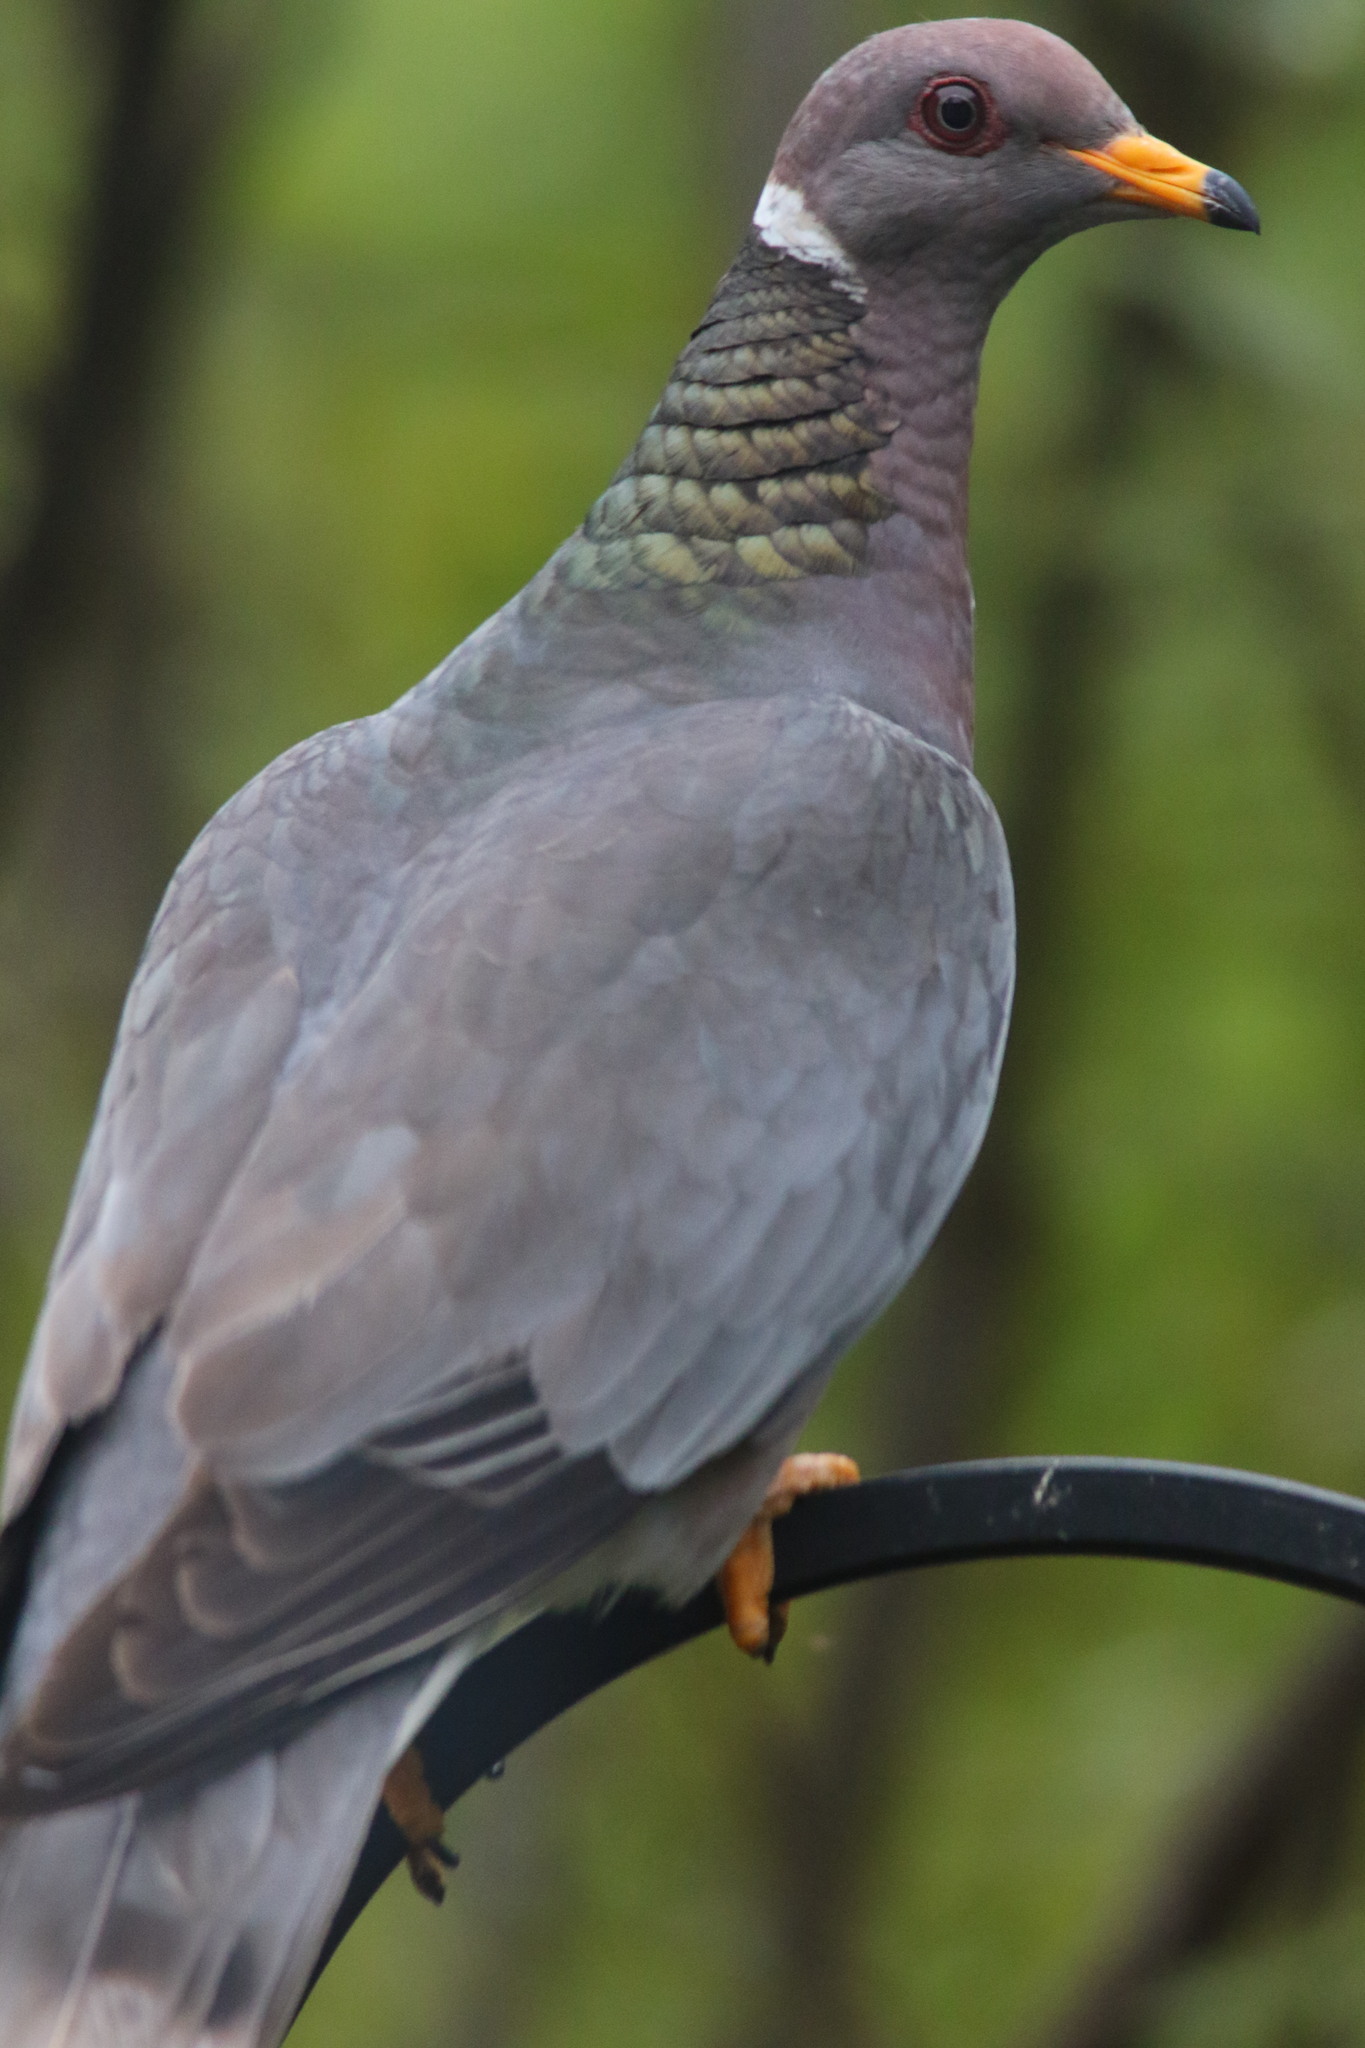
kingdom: Animalia
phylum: Chordata
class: Aves
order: Columbiformes
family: Columbidae
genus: Patagioenas
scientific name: Patagioenas fasciata
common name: Band-tailed pigeon
